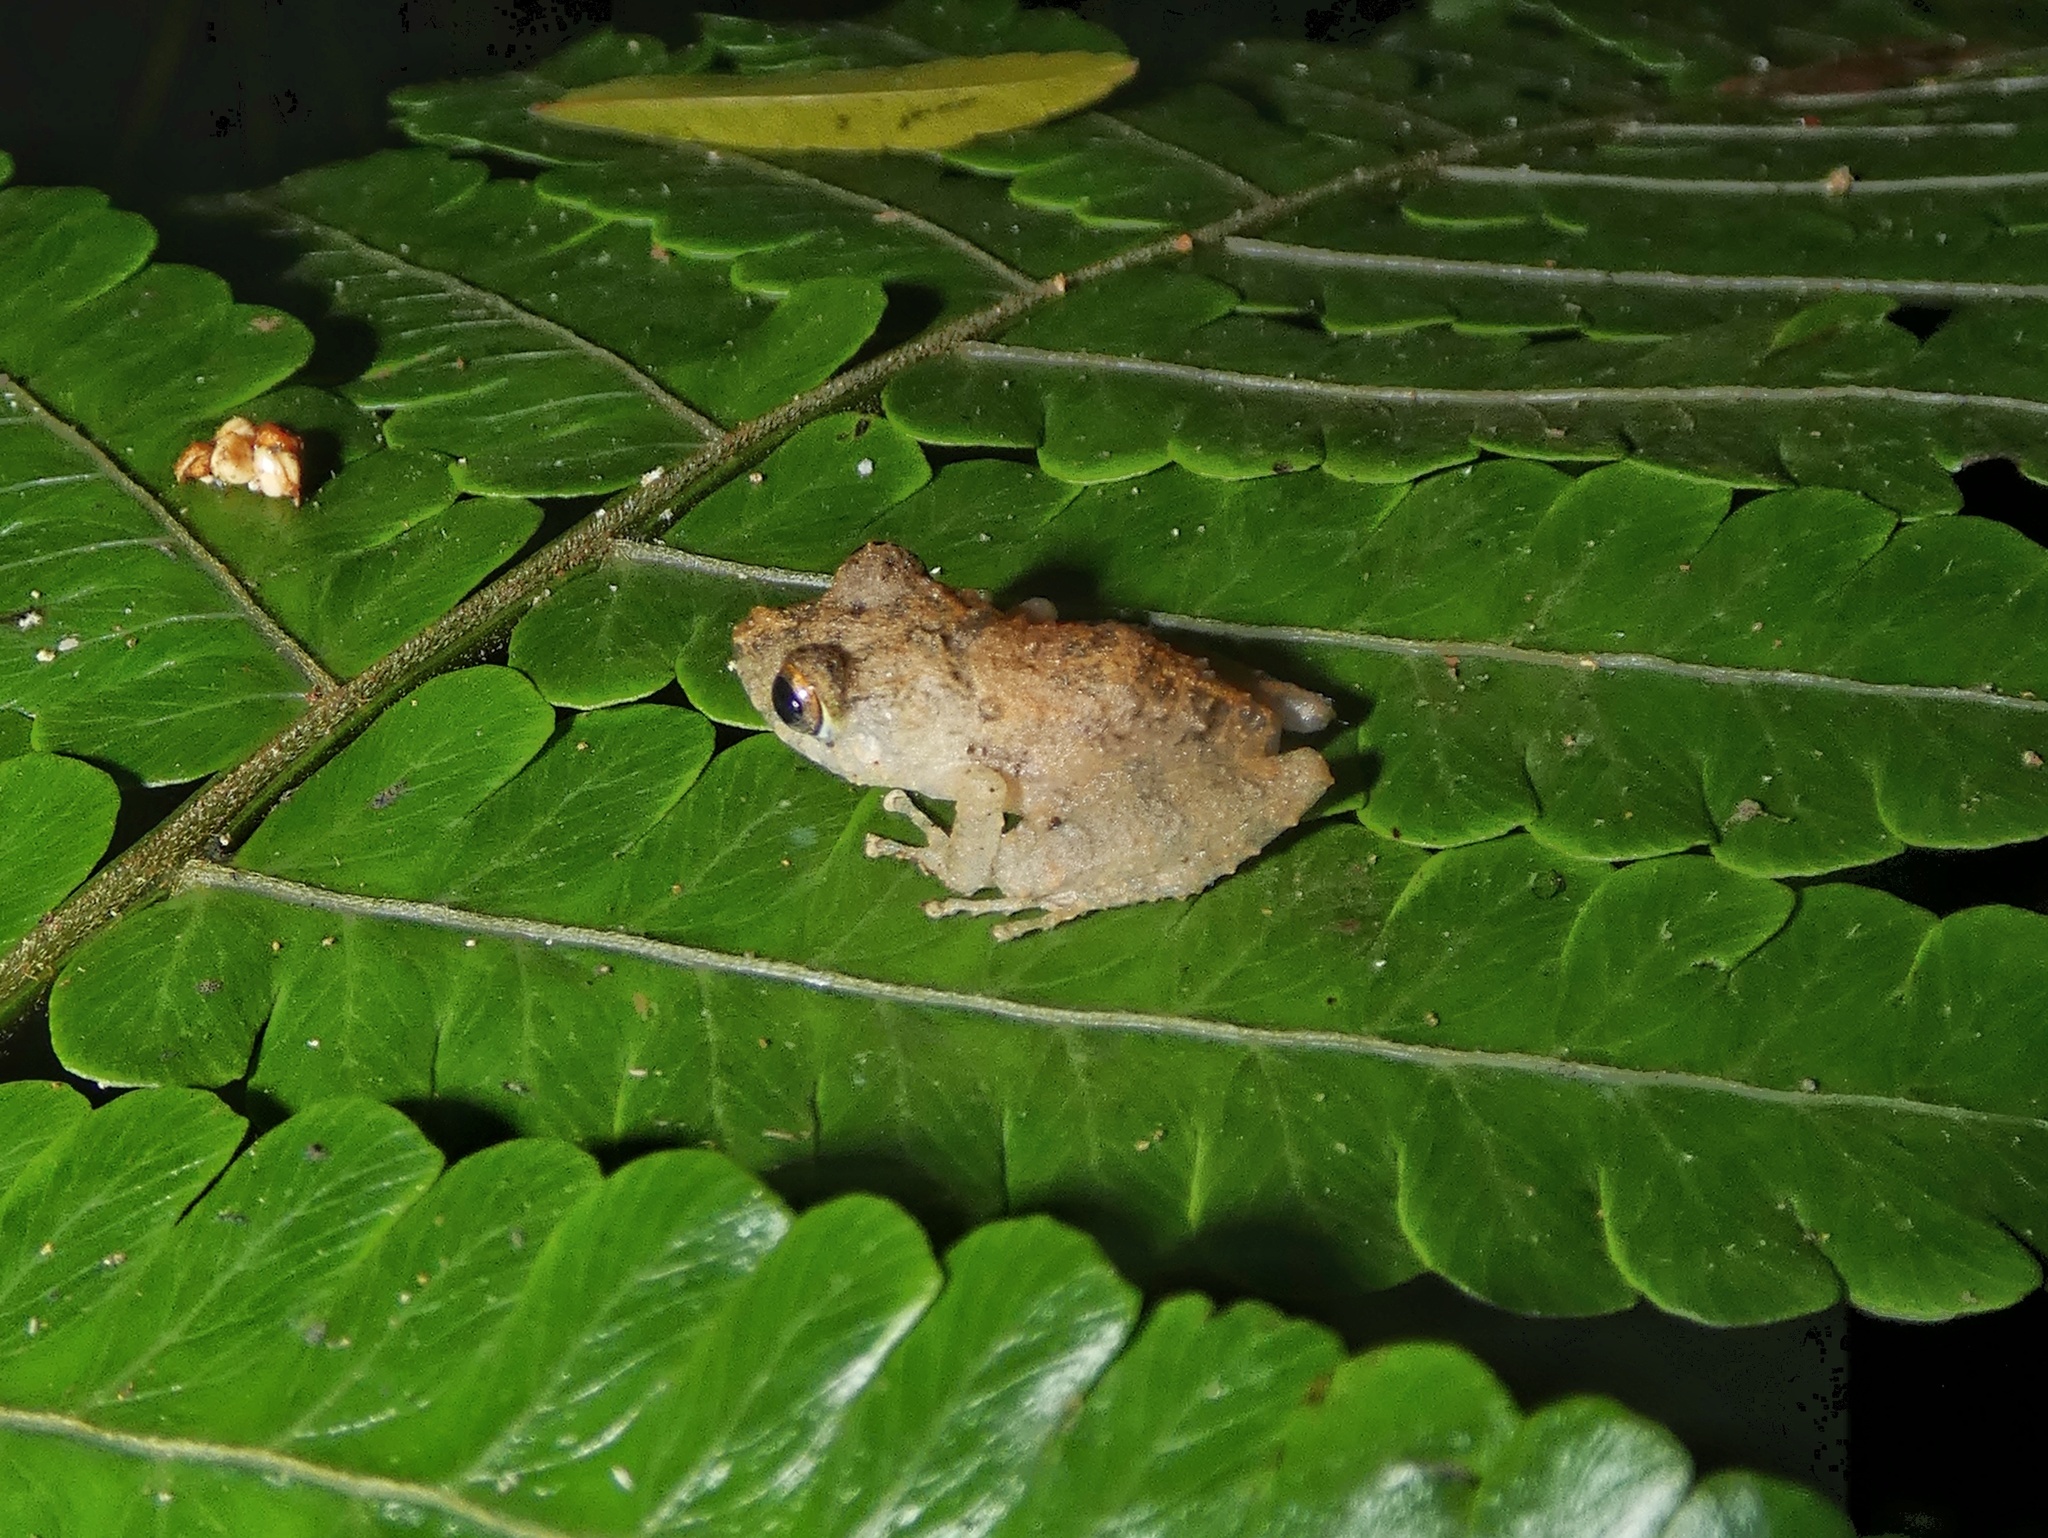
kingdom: Animalia
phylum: Chordata
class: Amphibia
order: Anura
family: Craugastoridae
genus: Pristimantis
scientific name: Pristimantis cruentus
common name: Chiriqui robber frog
